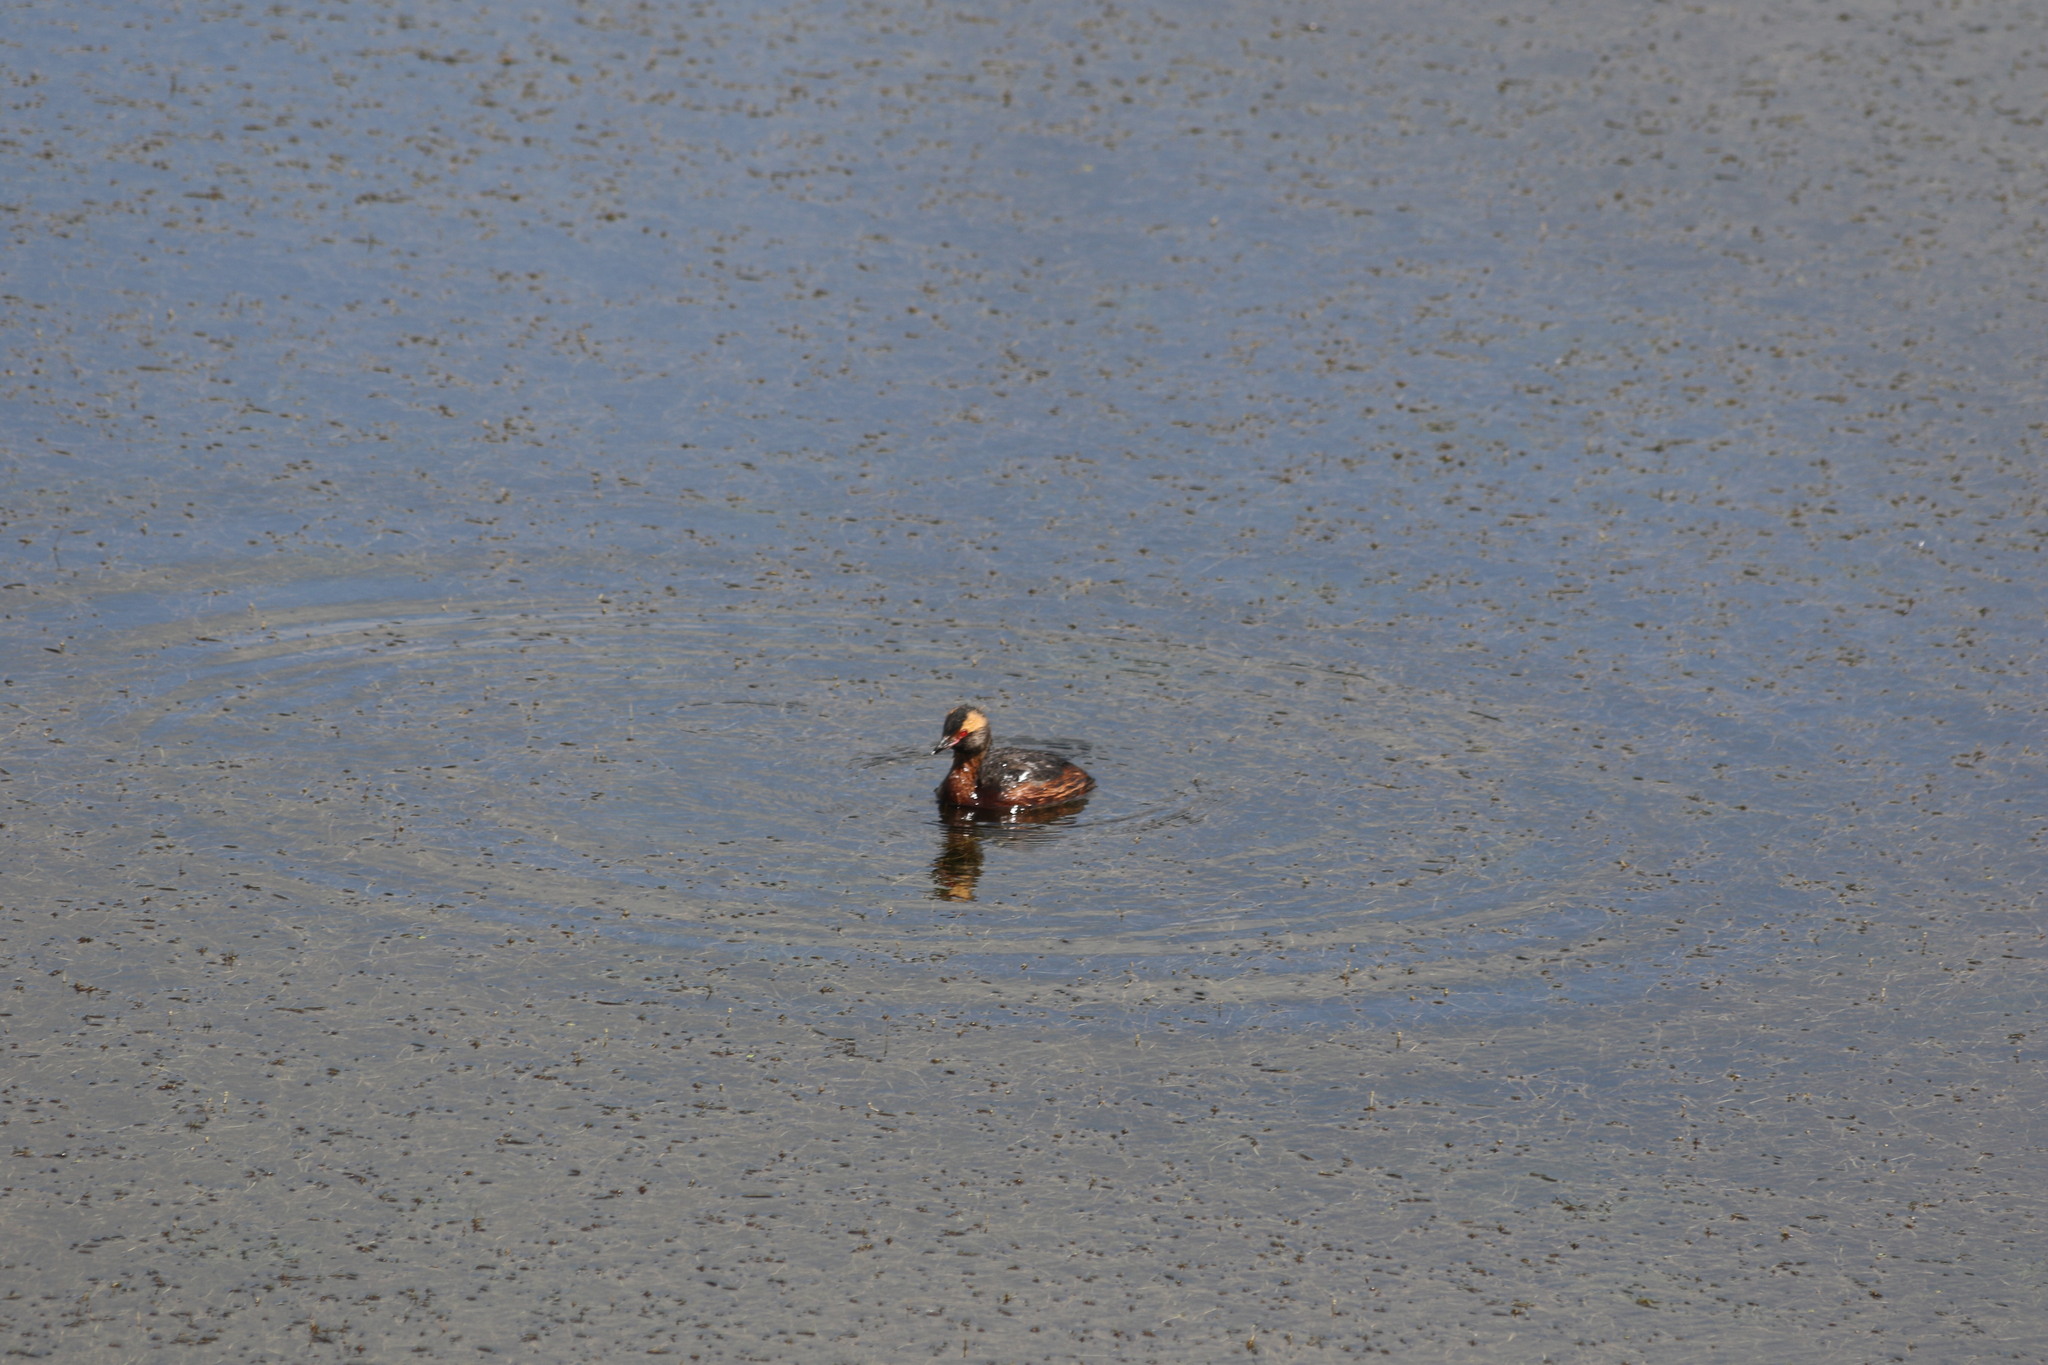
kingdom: Animalia
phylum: Chordata
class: Aves
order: Podicipediformes
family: Podicipedidae
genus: Podiceps
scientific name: Podiceps auritus
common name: Horned grebe
